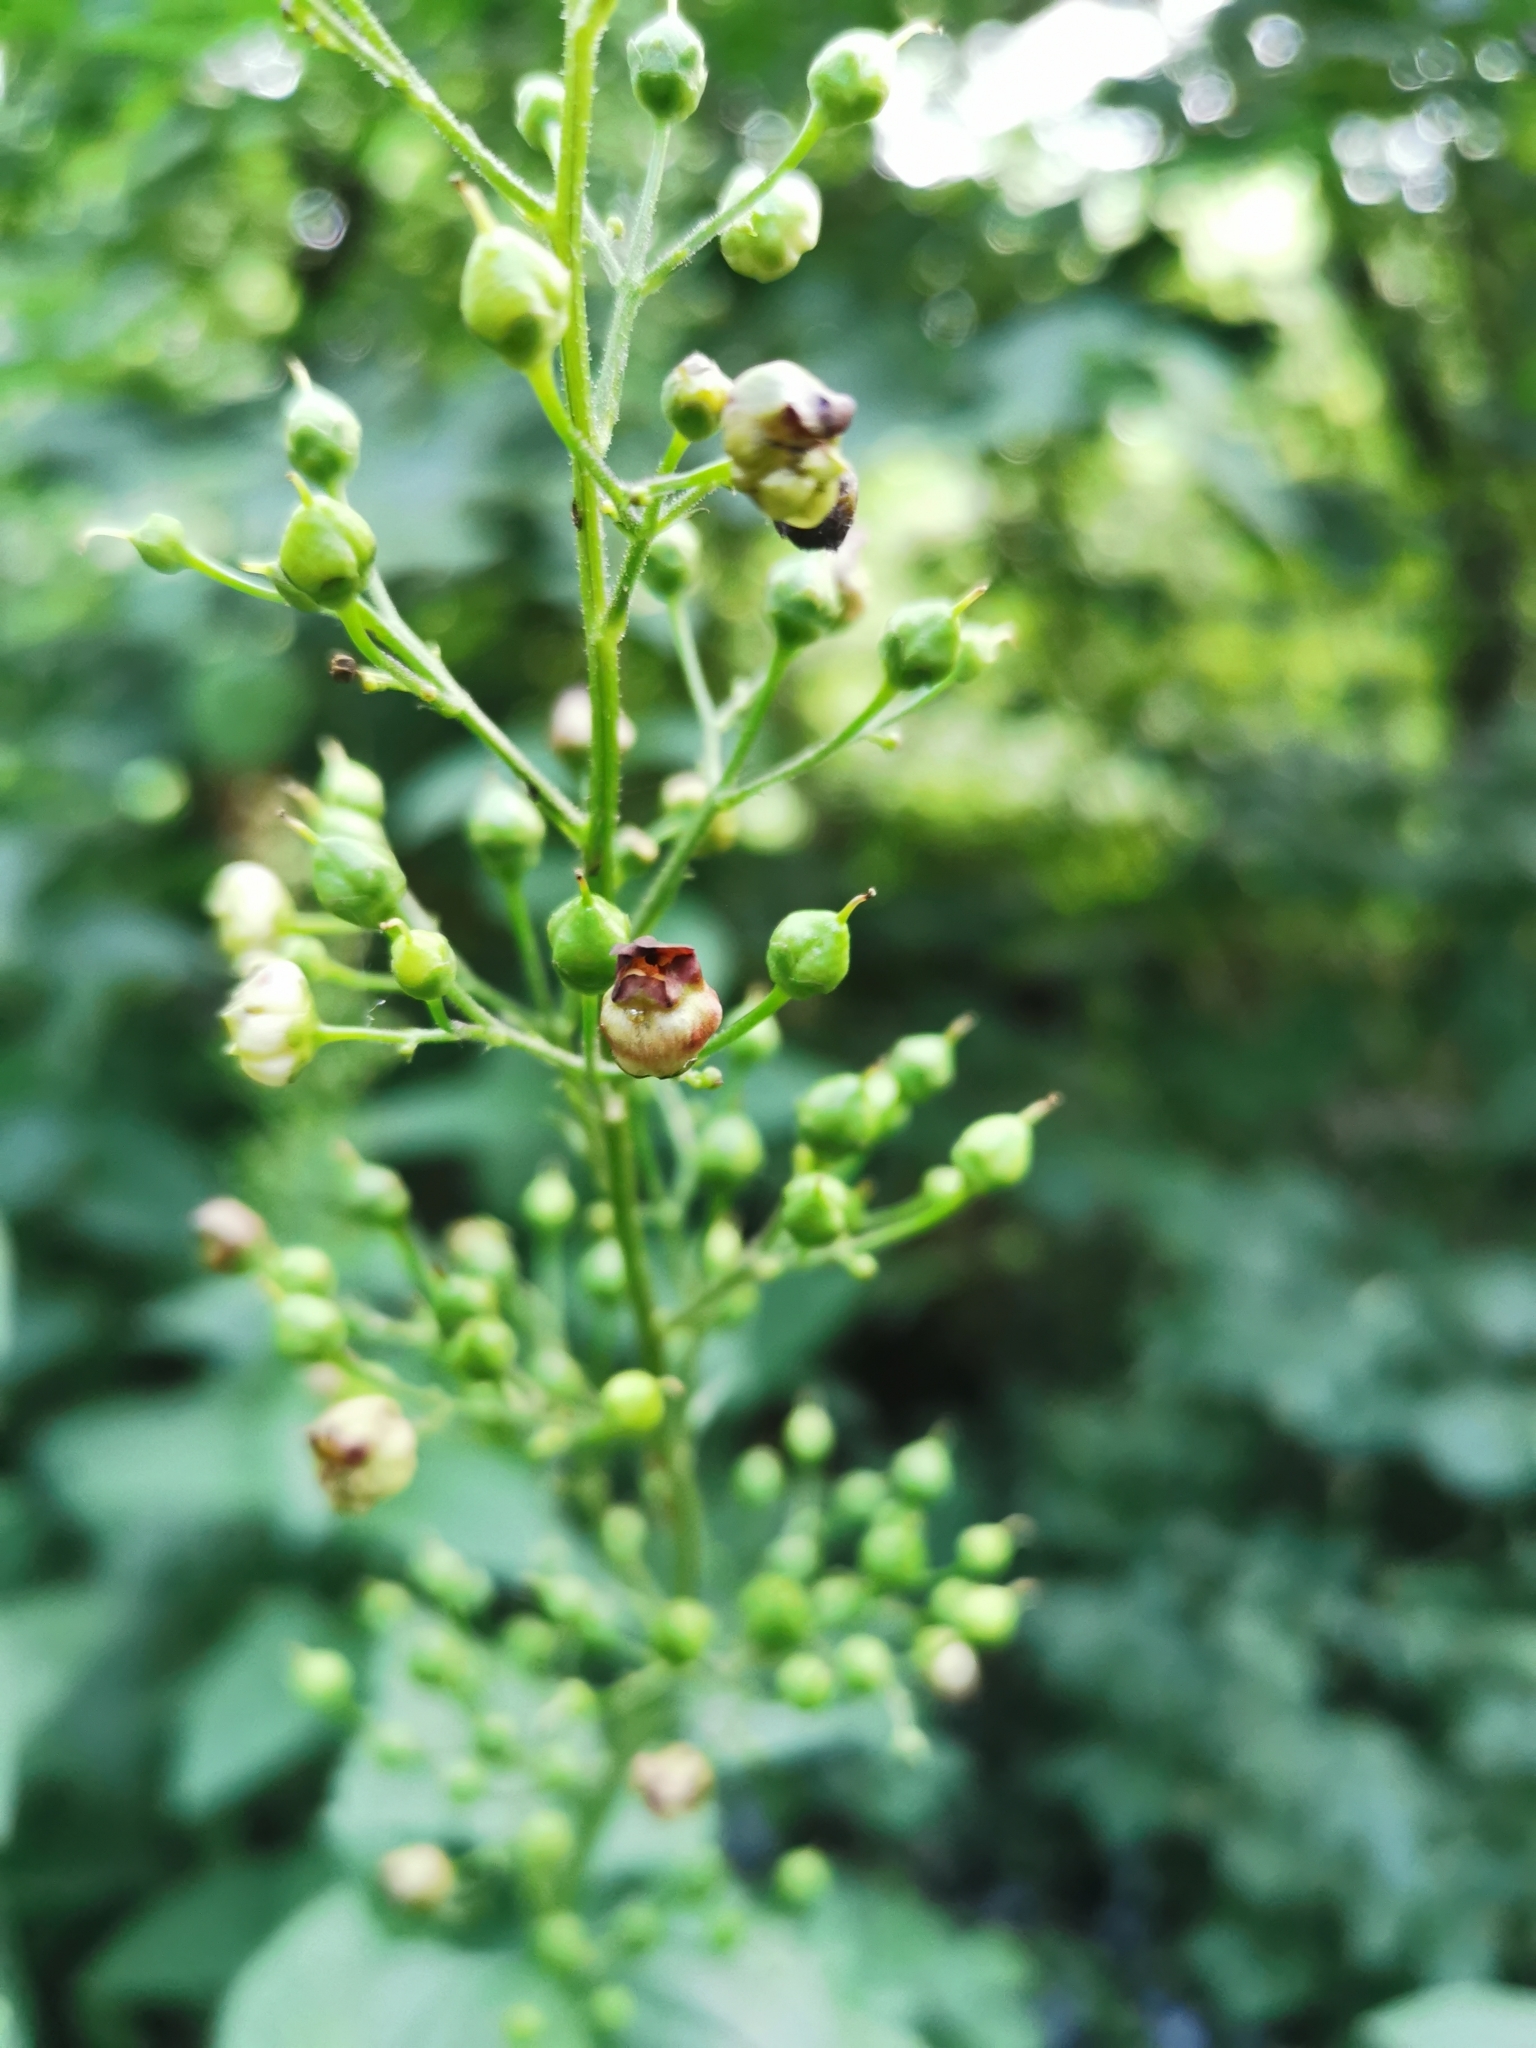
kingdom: Plantae
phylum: Tracheophyta
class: Magnoliopsida
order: Lamiales
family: Scrophulariaceae
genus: Scrophularia
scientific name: Scrophularia nodosa
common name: Common figwort
